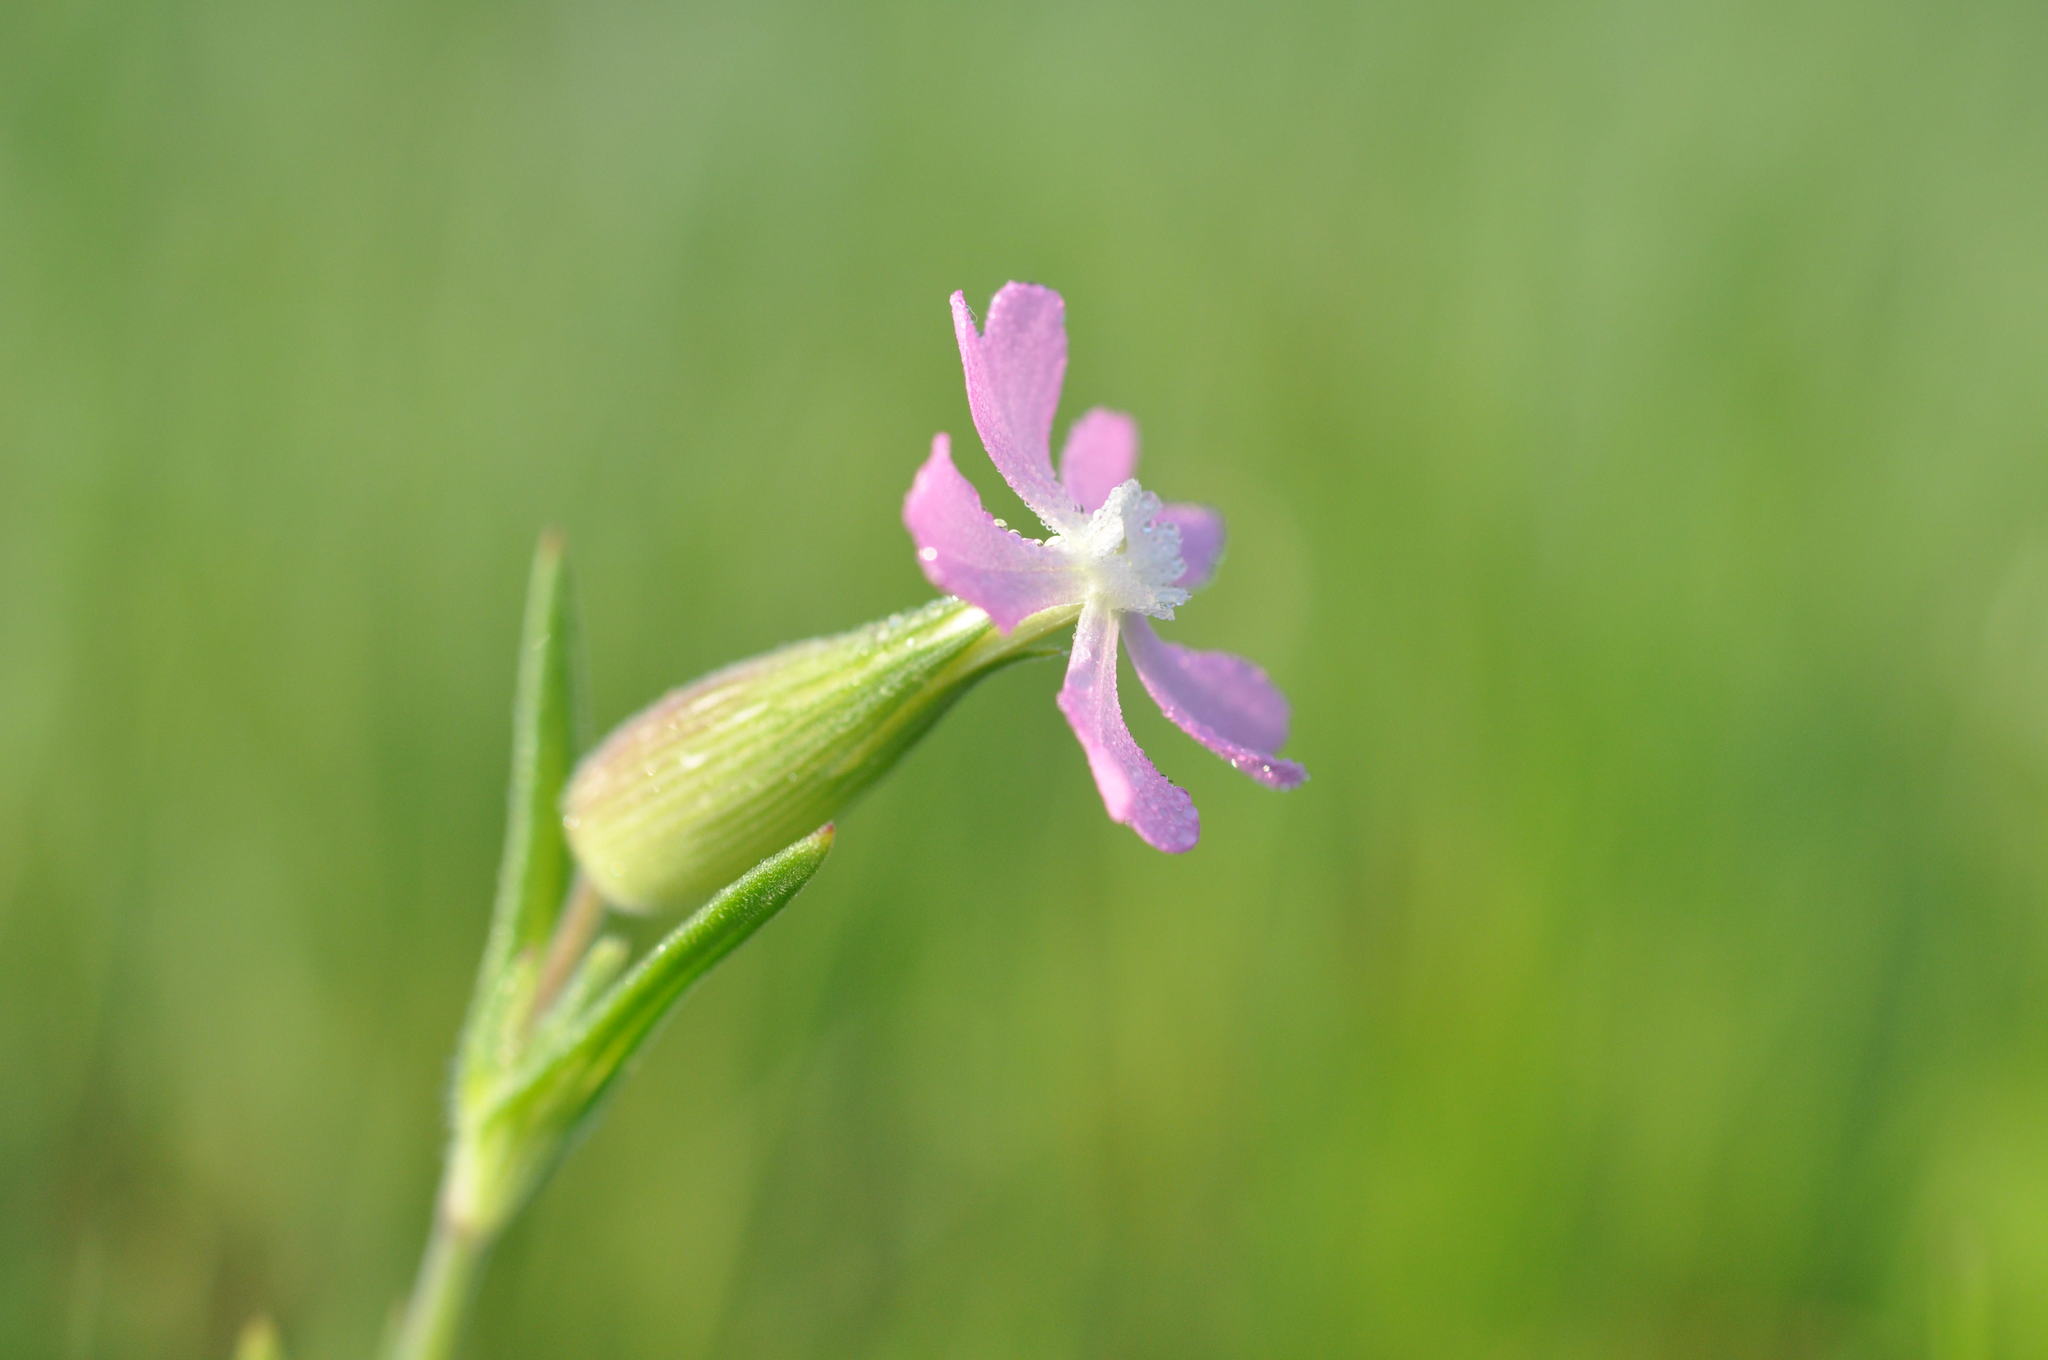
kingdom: Plantae
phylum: Tracheophyta
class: Magnoliopsida
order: Caryophyllales
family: Caryophyllaceae
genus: Silene
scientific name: Silene conica
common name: Sand catchfly
